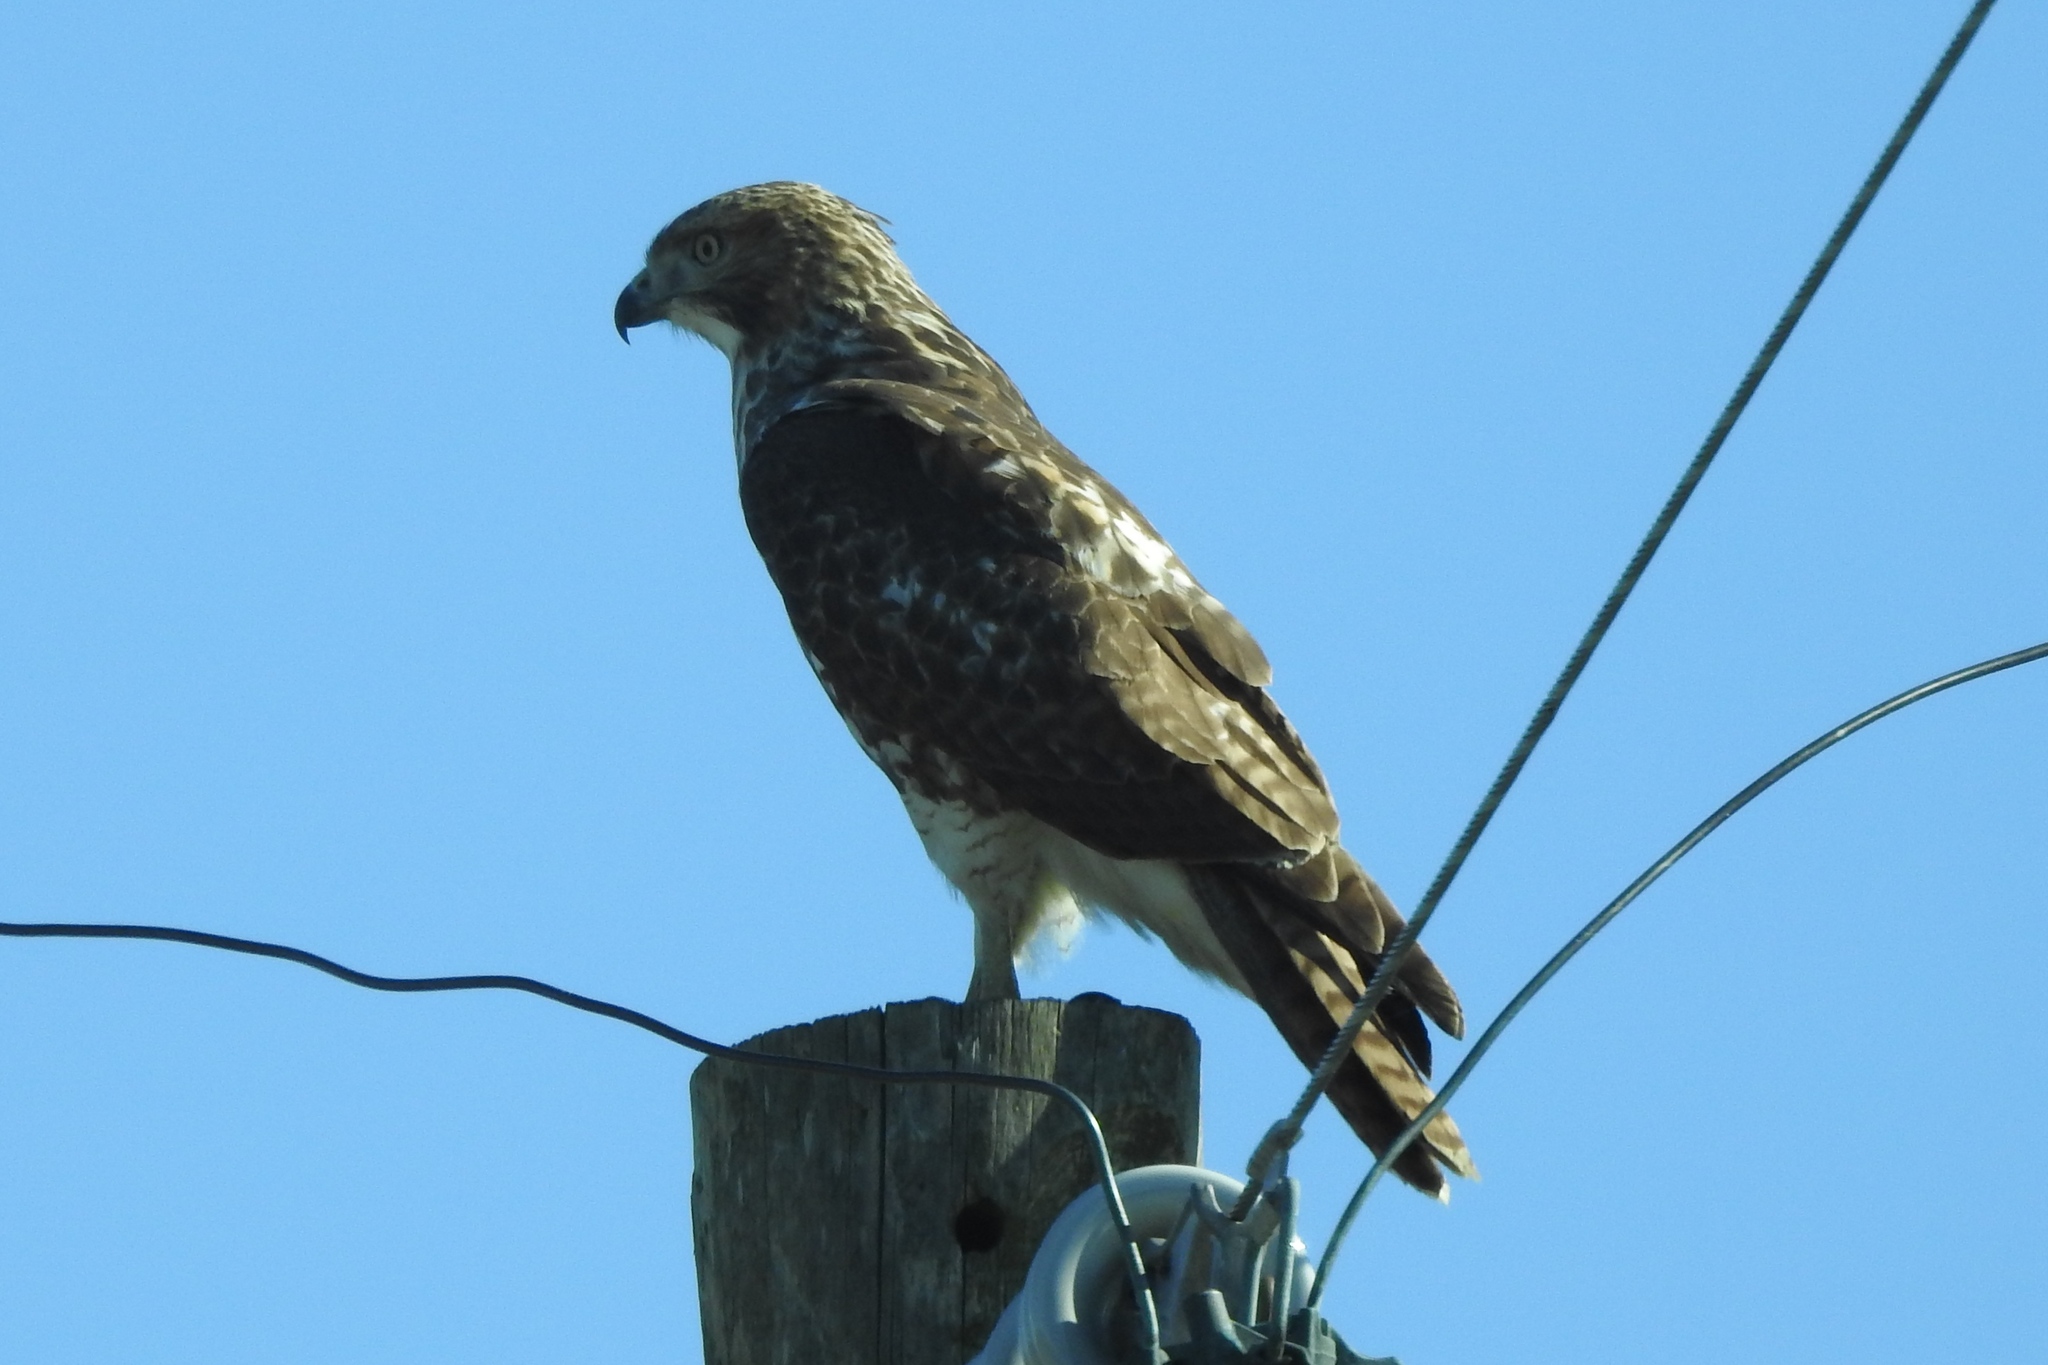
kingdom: Animalia
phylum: Chordata
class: Aves
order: Accipitriformes
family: Accipitridae
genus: Buteo
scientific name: Buteo jamaicensis
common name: Red-tailed hawk
